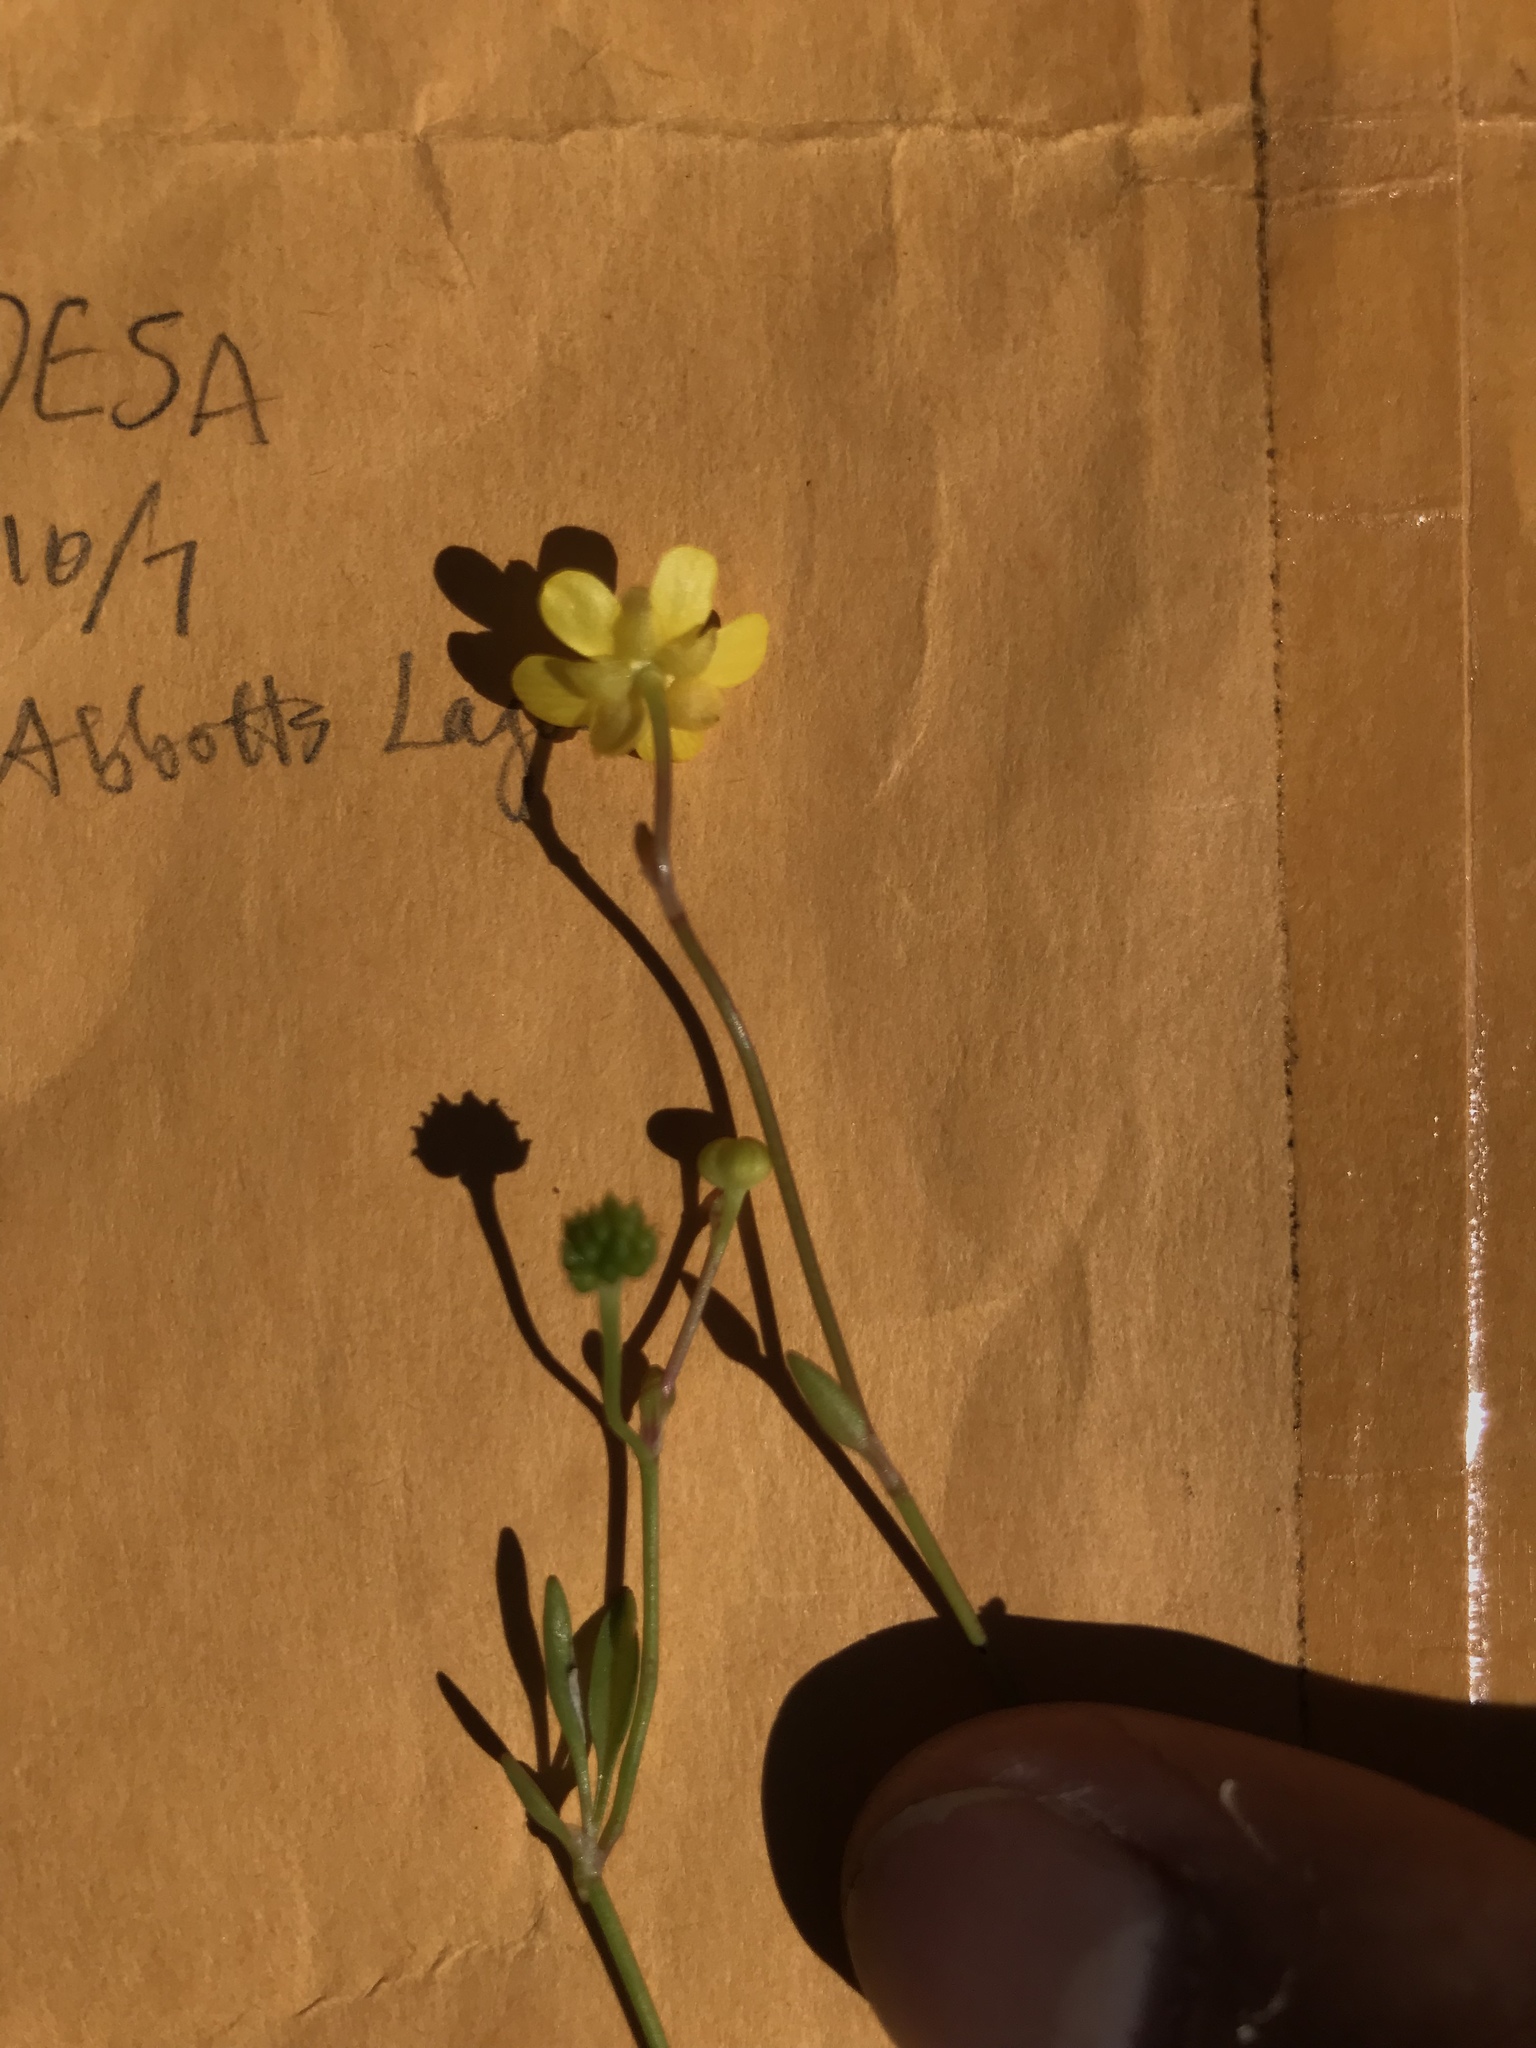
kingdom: Plantae
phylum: Tracheophyta
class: Magnoliopsida
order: Ranunculales
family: Ranunculaceae
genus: Ranunculus
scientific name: Ranunculus flammula
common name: Lesser spearwort
